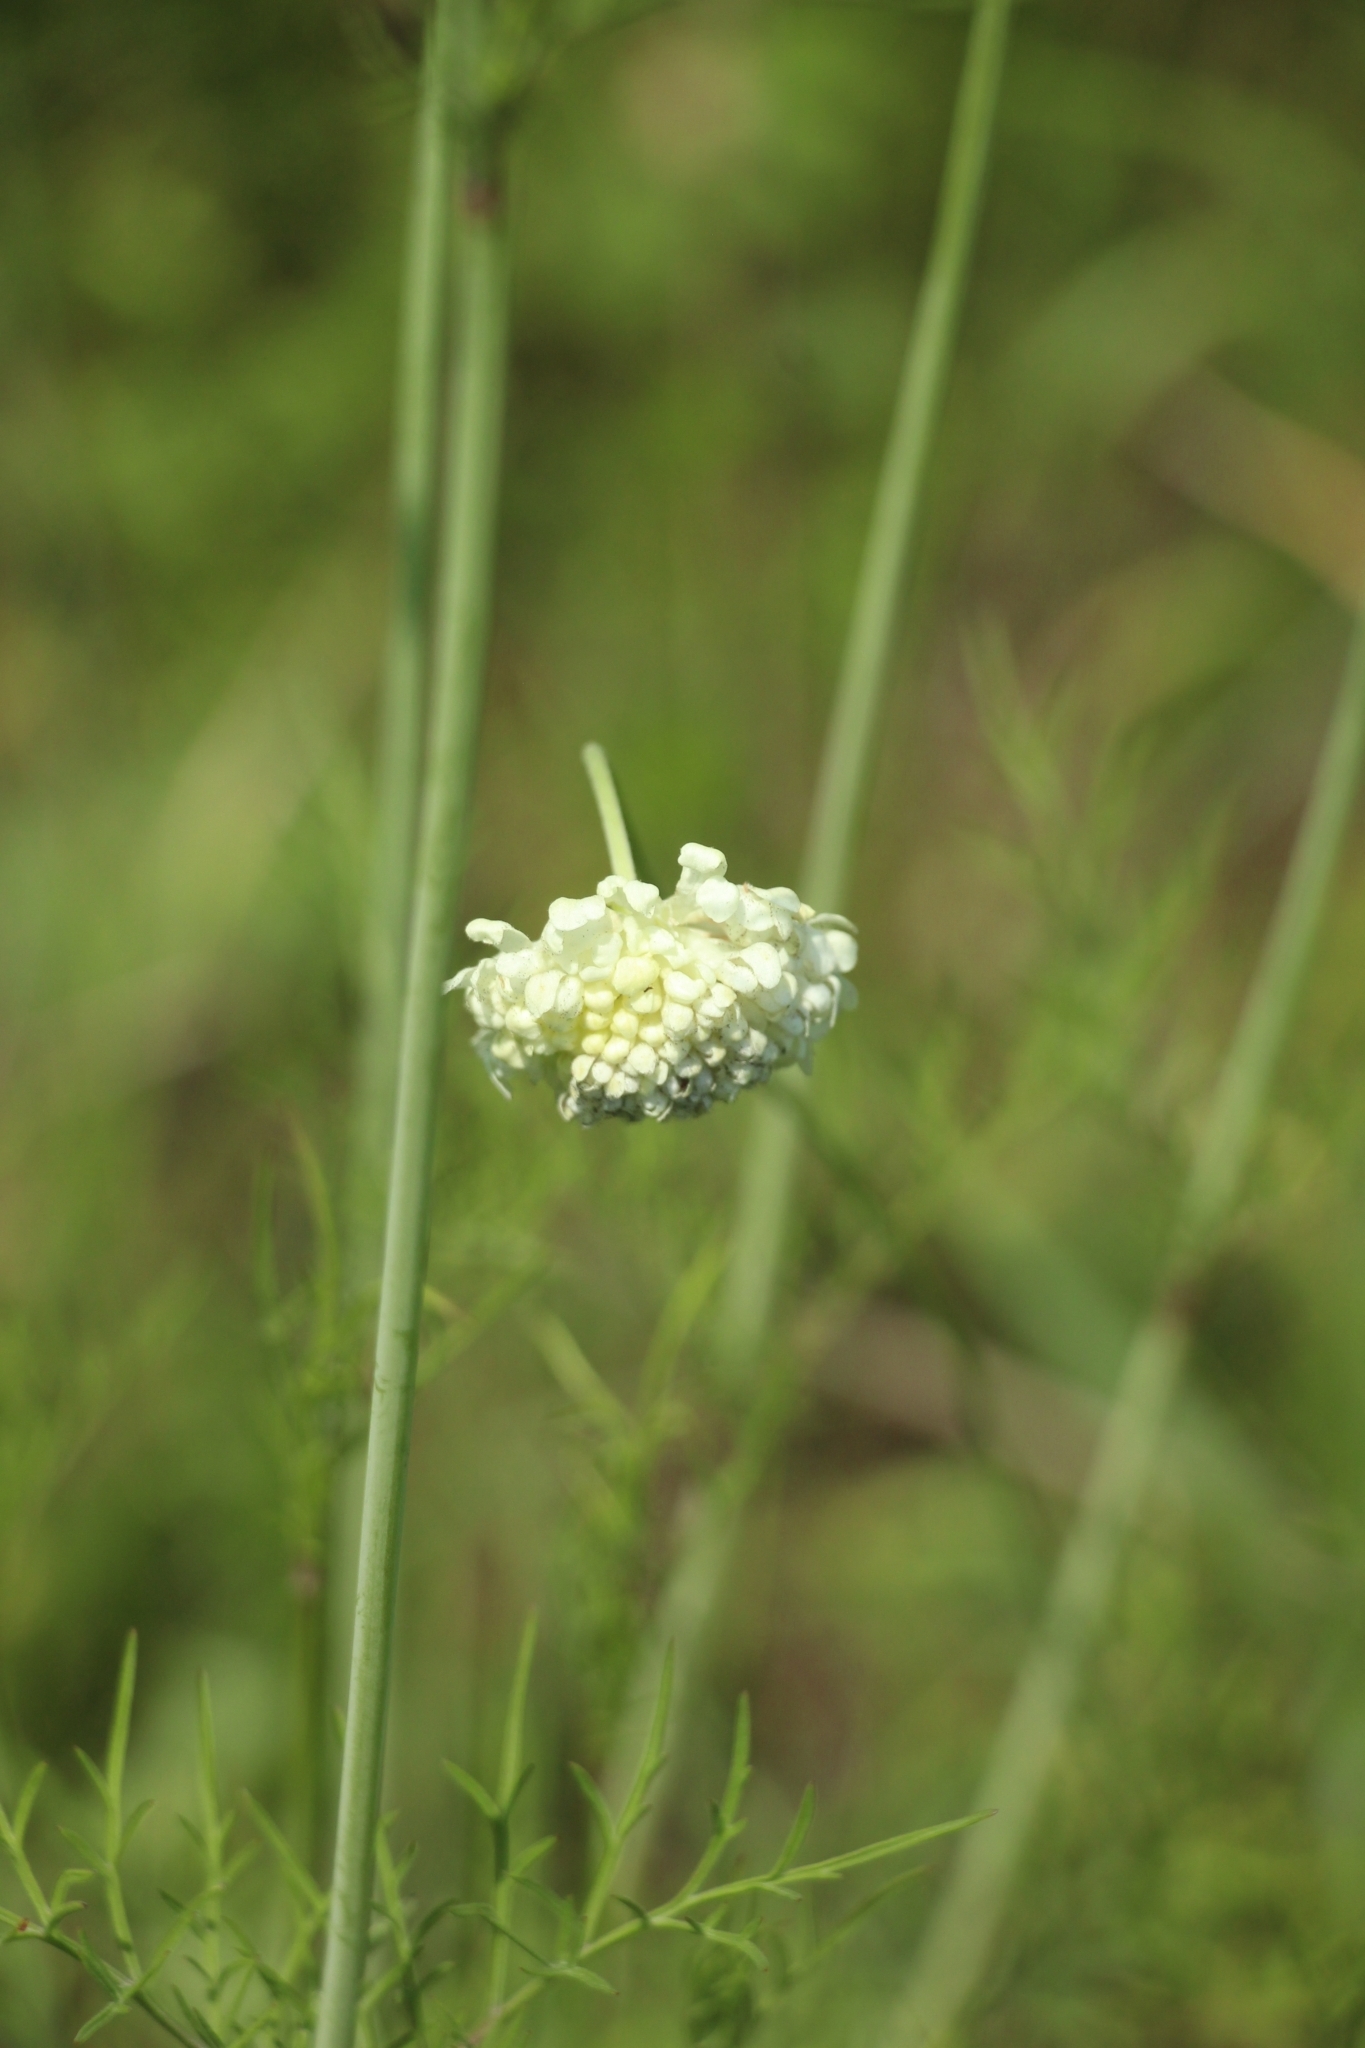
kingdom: Plantae
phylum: Tracheophyta
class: Magnoliopsida
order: Dipsacales
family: Caprifoliaceae
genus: Scabiosa
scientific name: Scabiosa ochroleuca
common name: Cream pincushions
